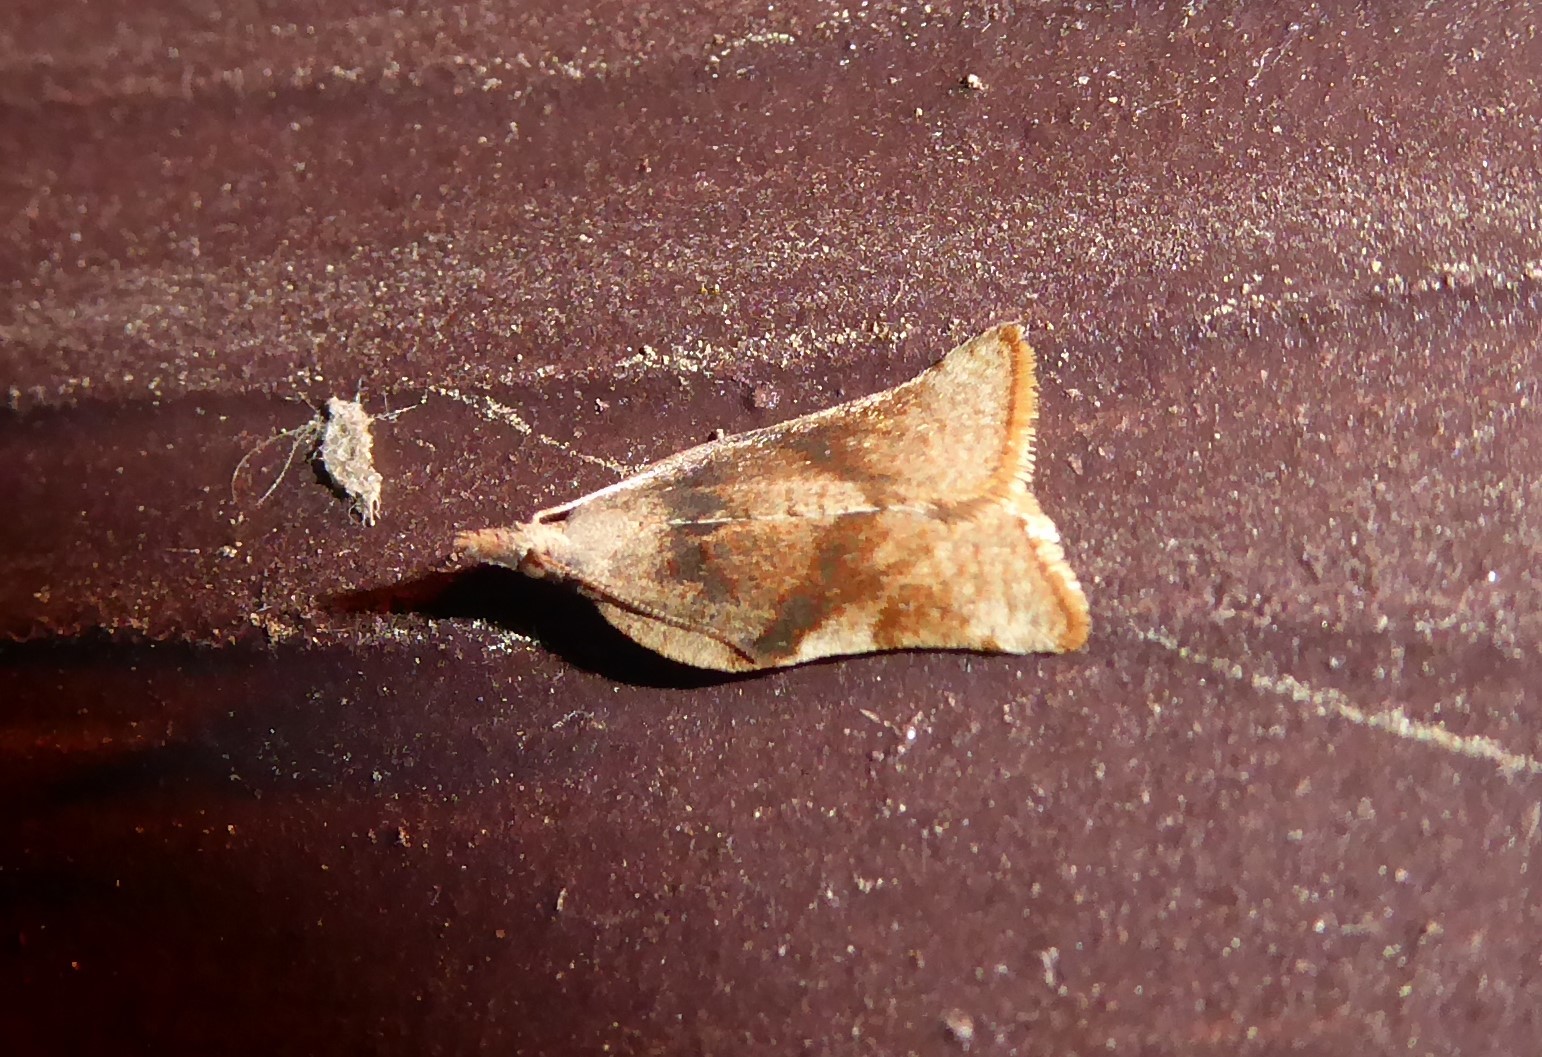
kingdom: Animalia
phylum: Arthropoda
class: Insecta
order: Lepidoptera
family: Tortricidae
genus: Catamacta
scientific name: Catamacta gavisana
